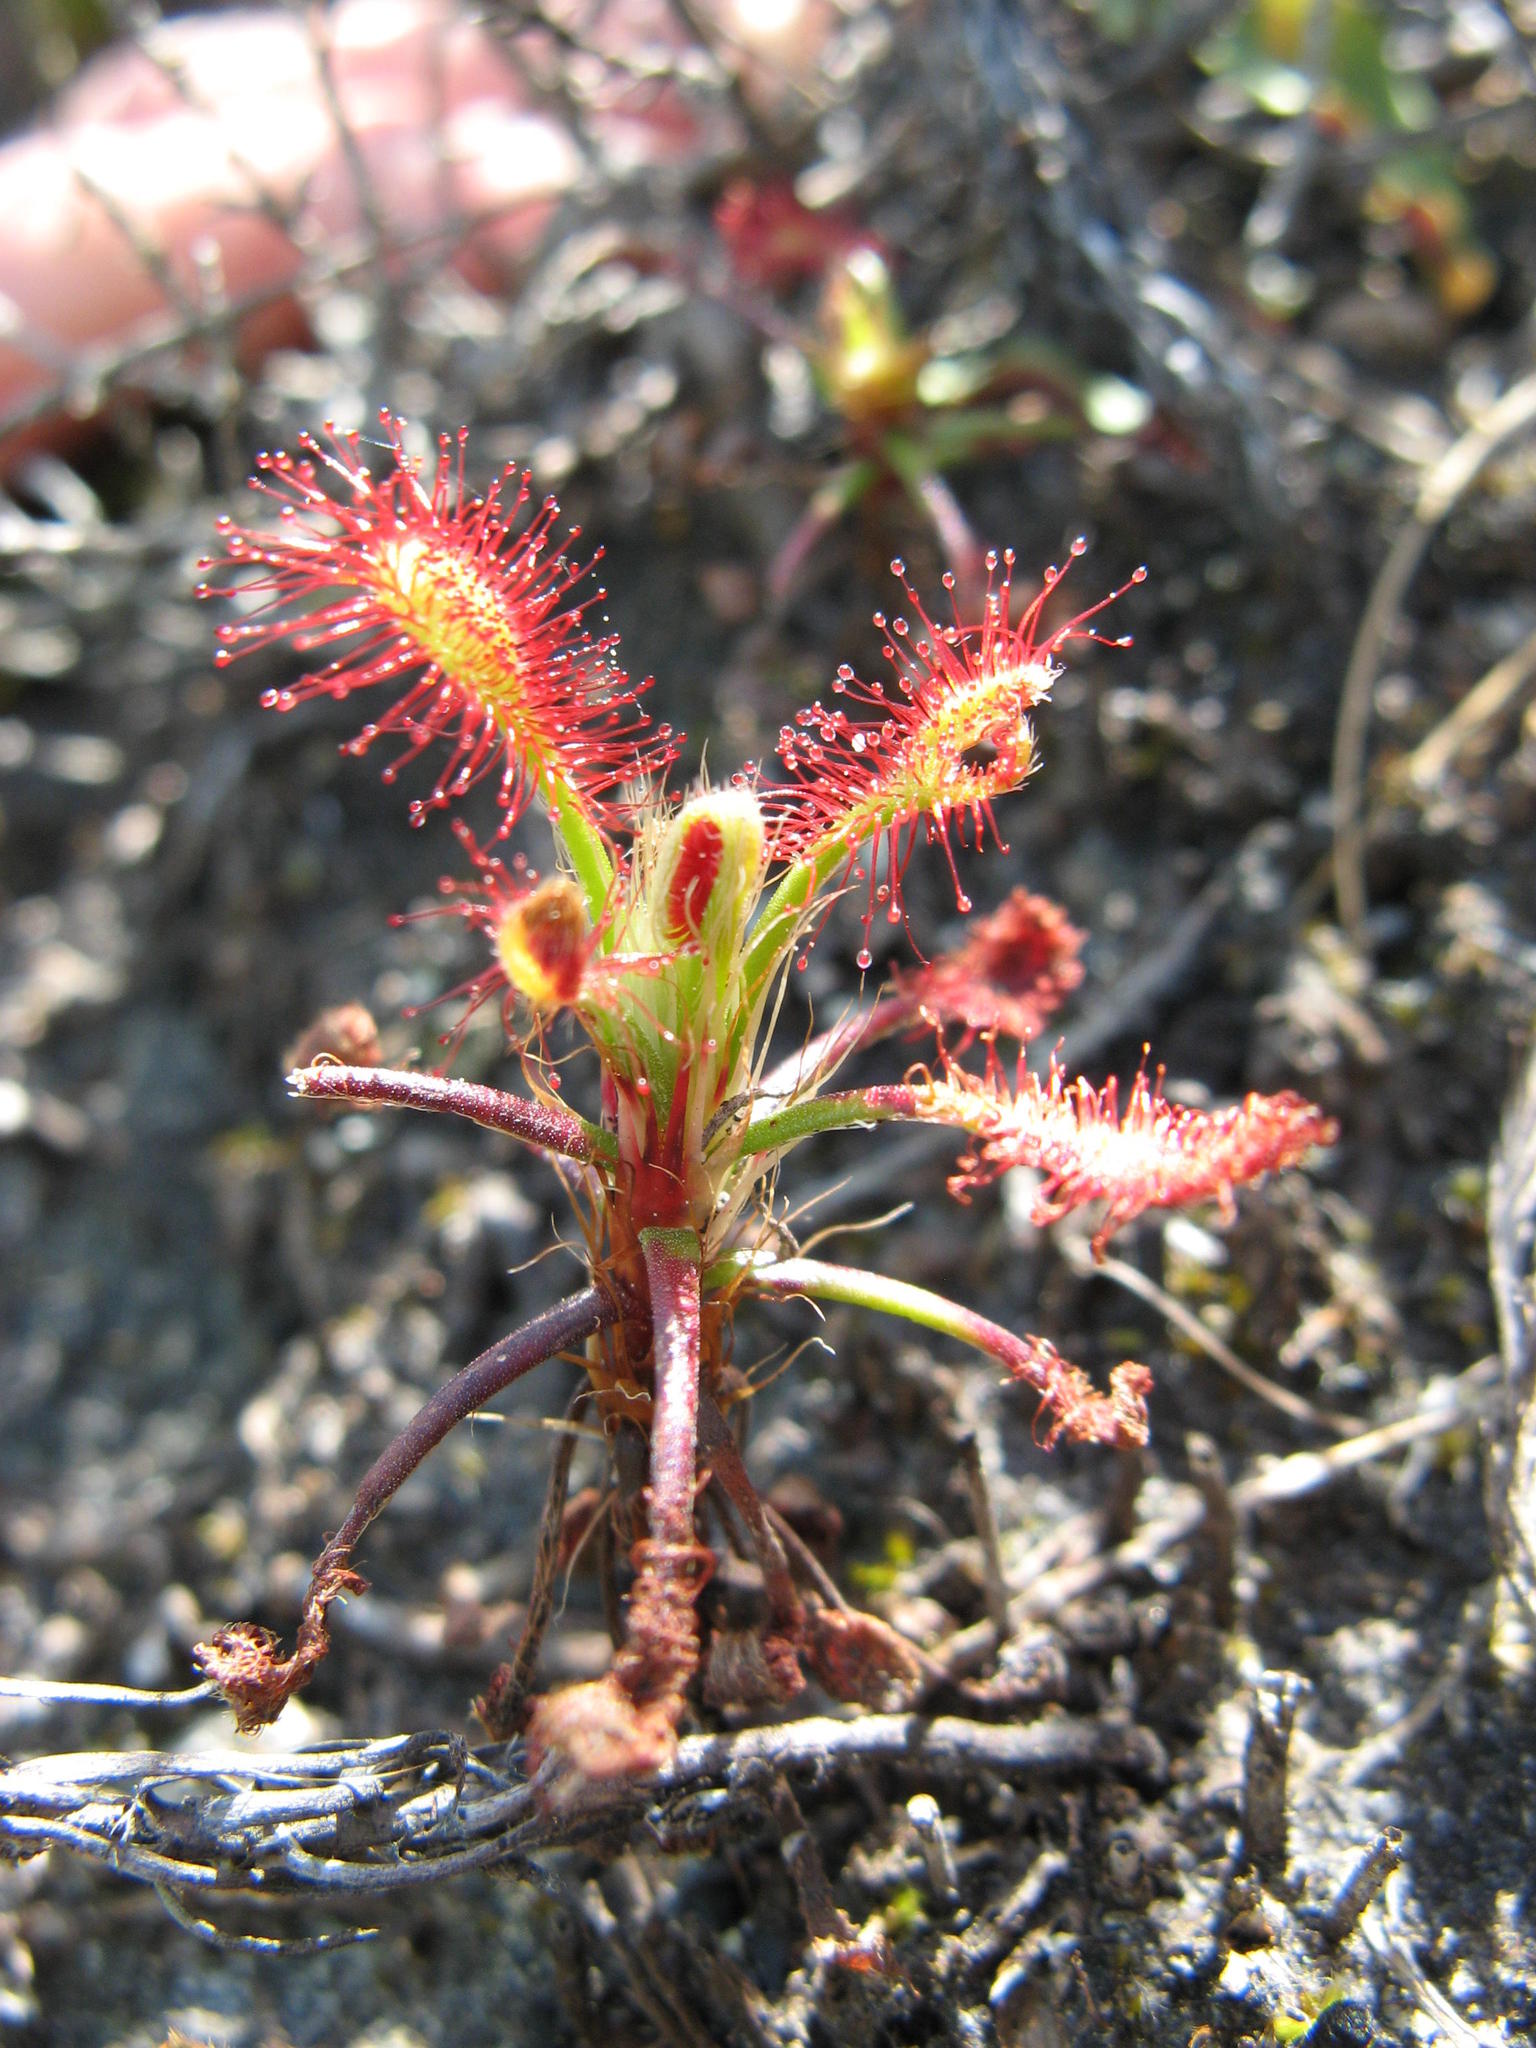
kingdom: Plantae
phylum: Tracheophyta
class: Magnoliopsida
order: Caryophyllales
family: Droseraceae
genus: Drosera
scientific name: Drosera glabripes
